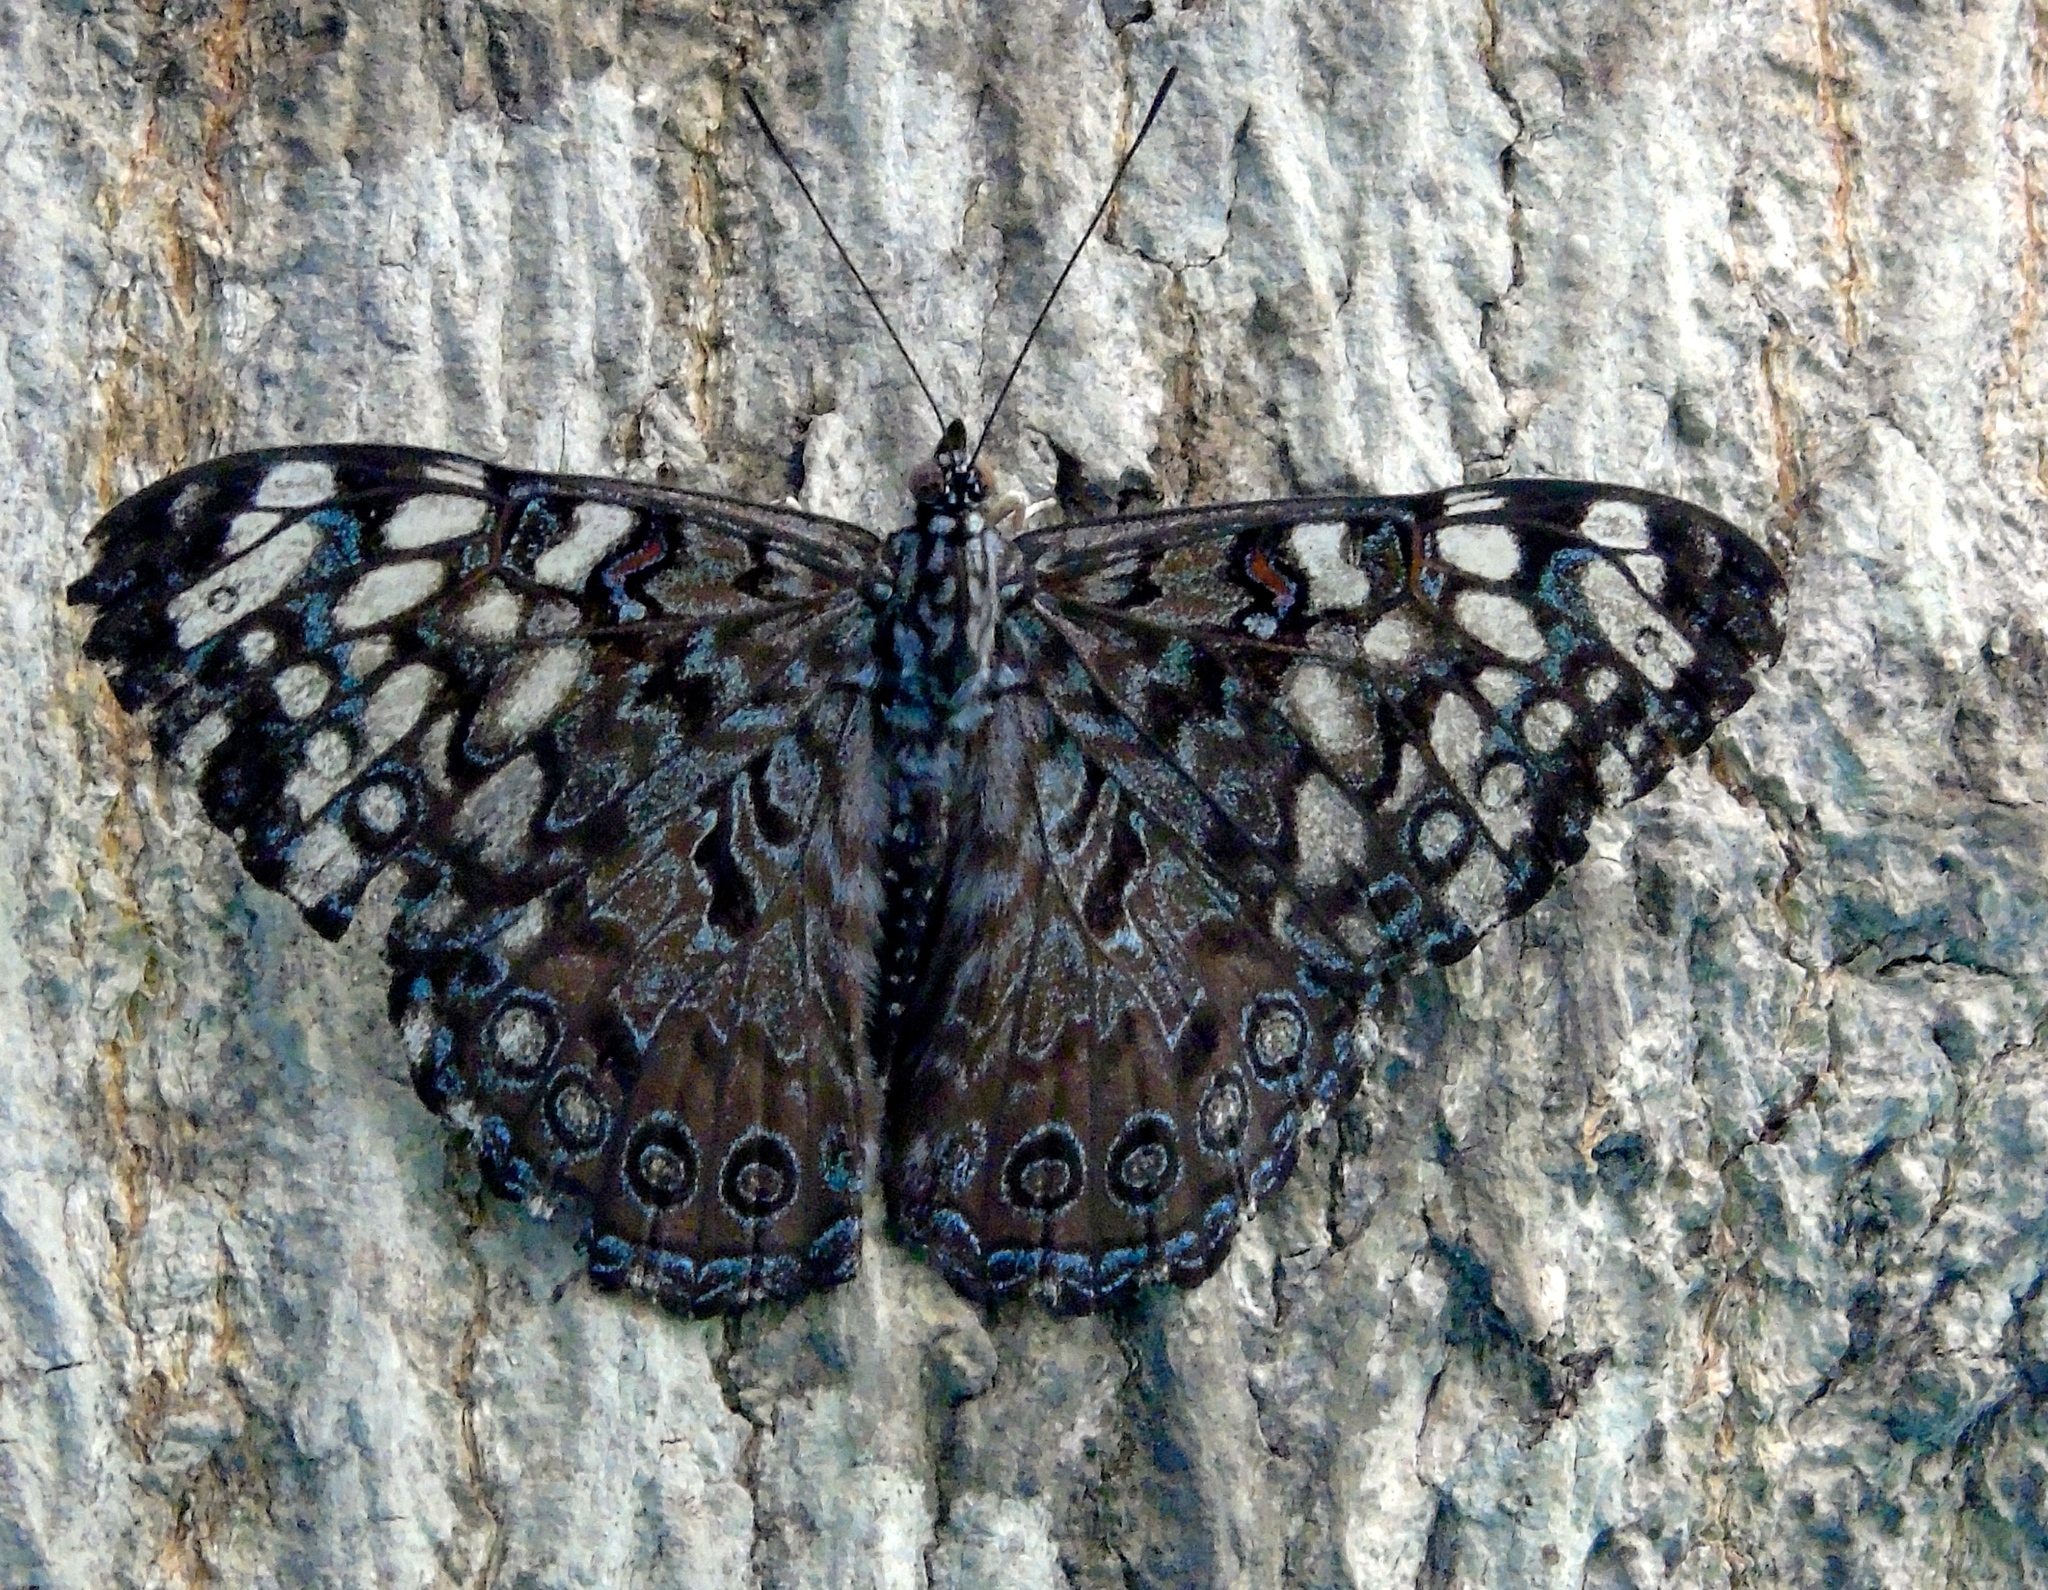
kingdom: Animalia
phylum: Arthropoda
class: Insecta
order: Lepidoptera
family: Nymphalidae
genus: Hamadryas
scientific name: Hamadryas guatemalena
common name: Guatemalan cracker
